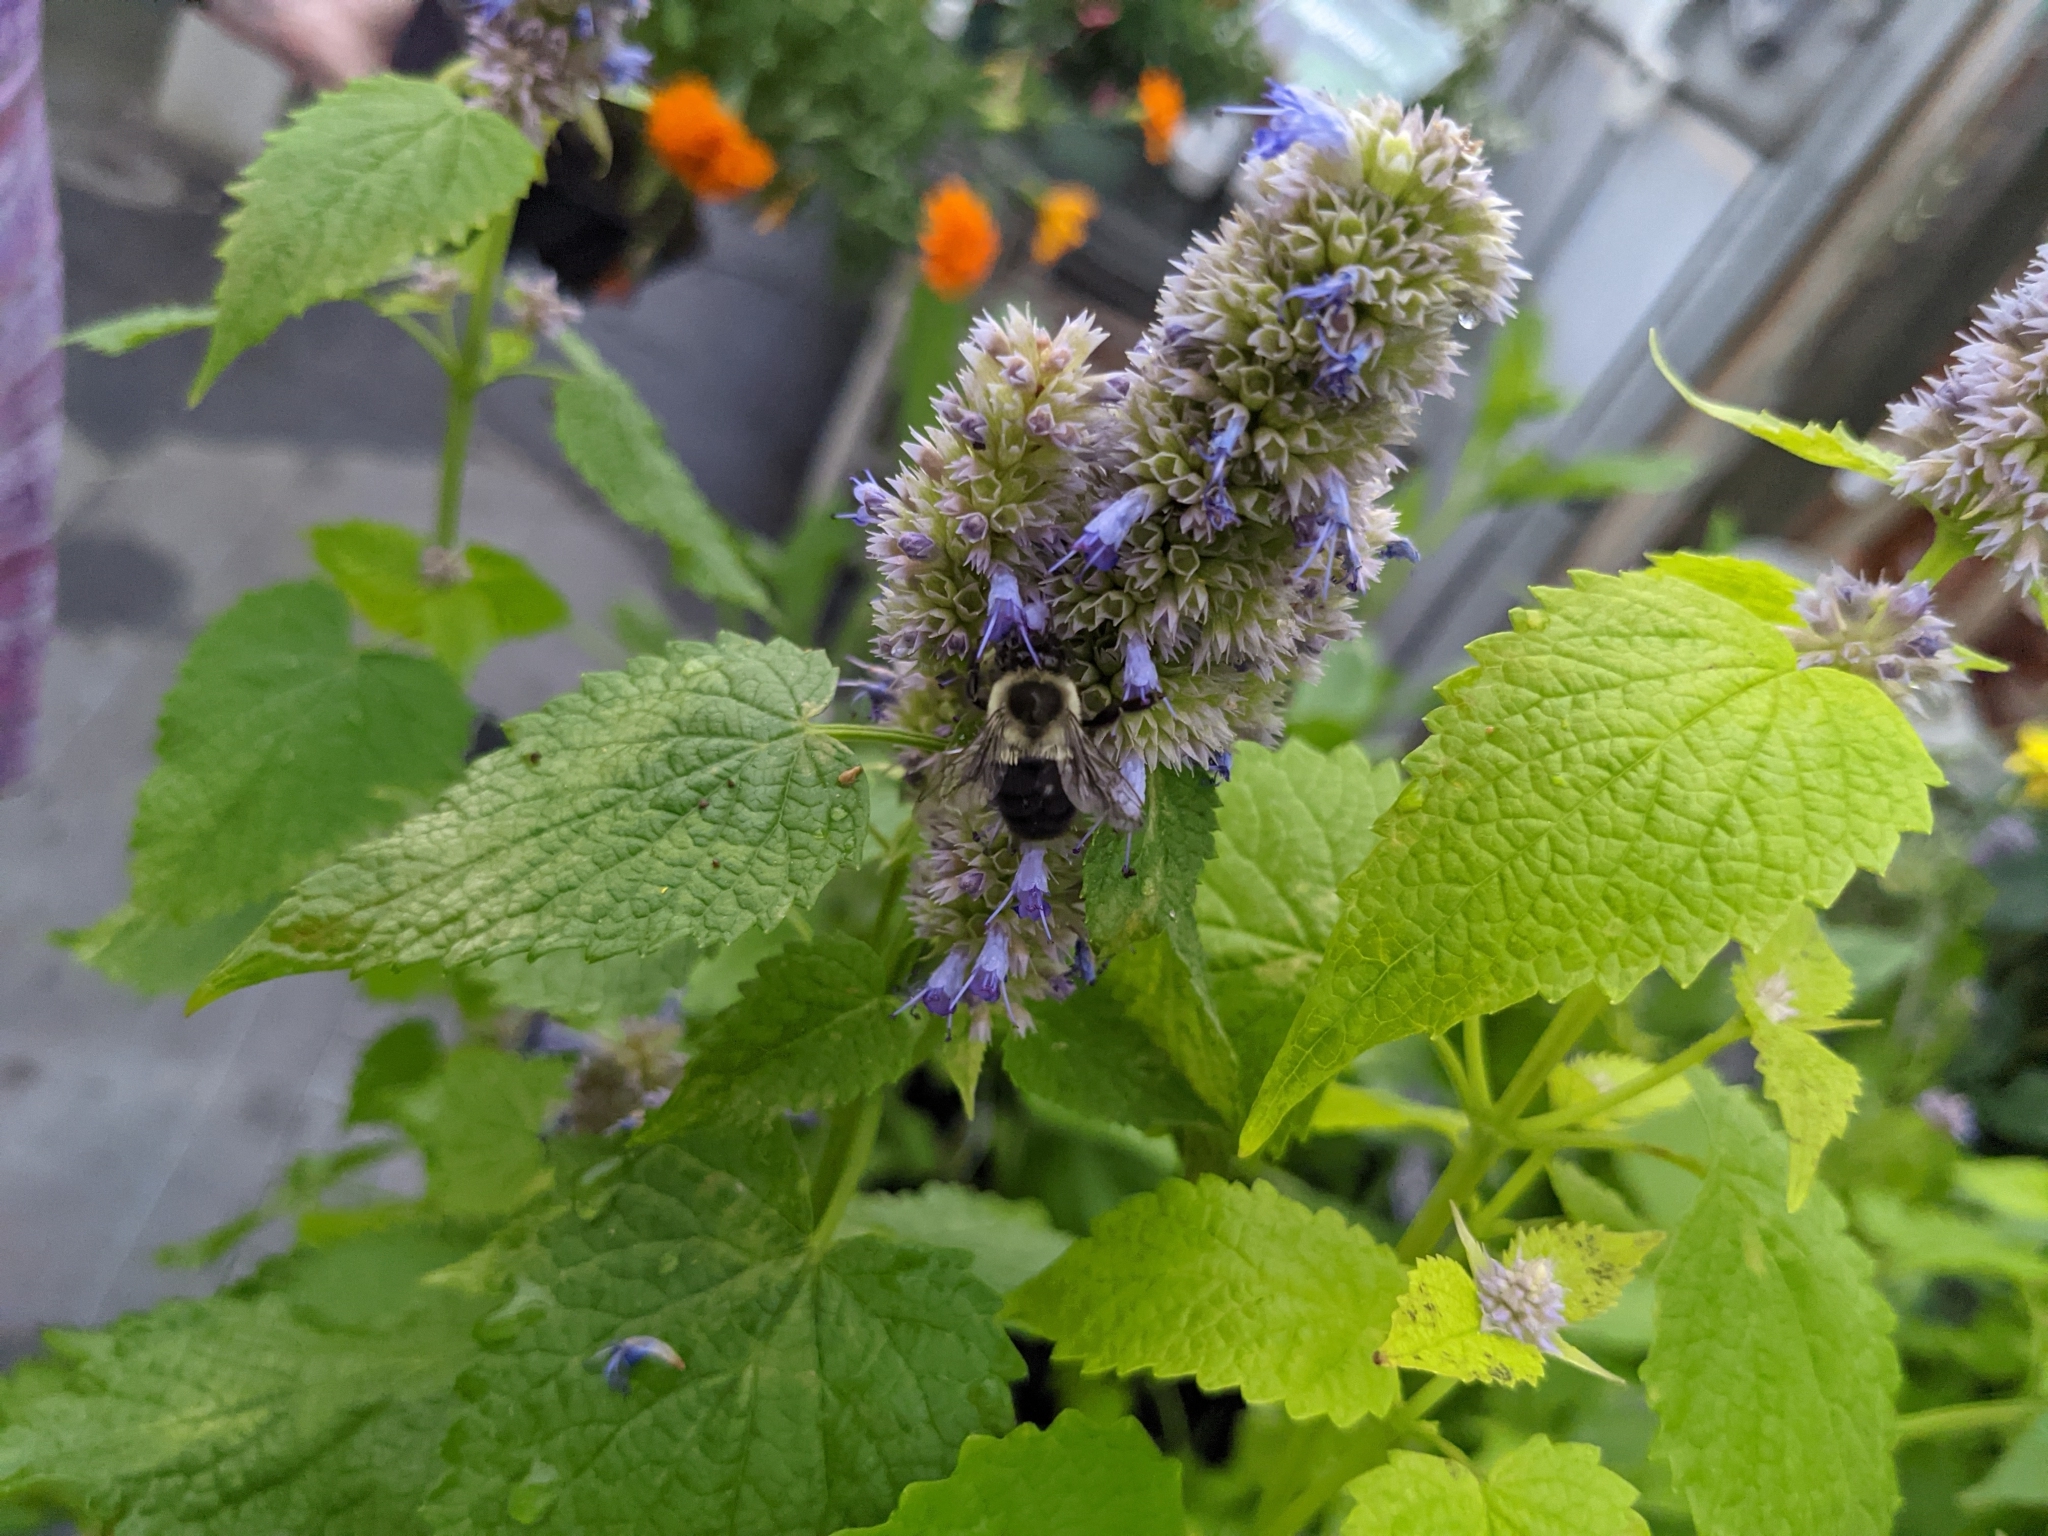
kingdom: Animalia
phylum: Arthropoda
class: Insecta
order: Hymenoptera
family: Apidae
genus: Bombus
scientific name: Bombus impatiens
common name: Common eastern bumble bee
